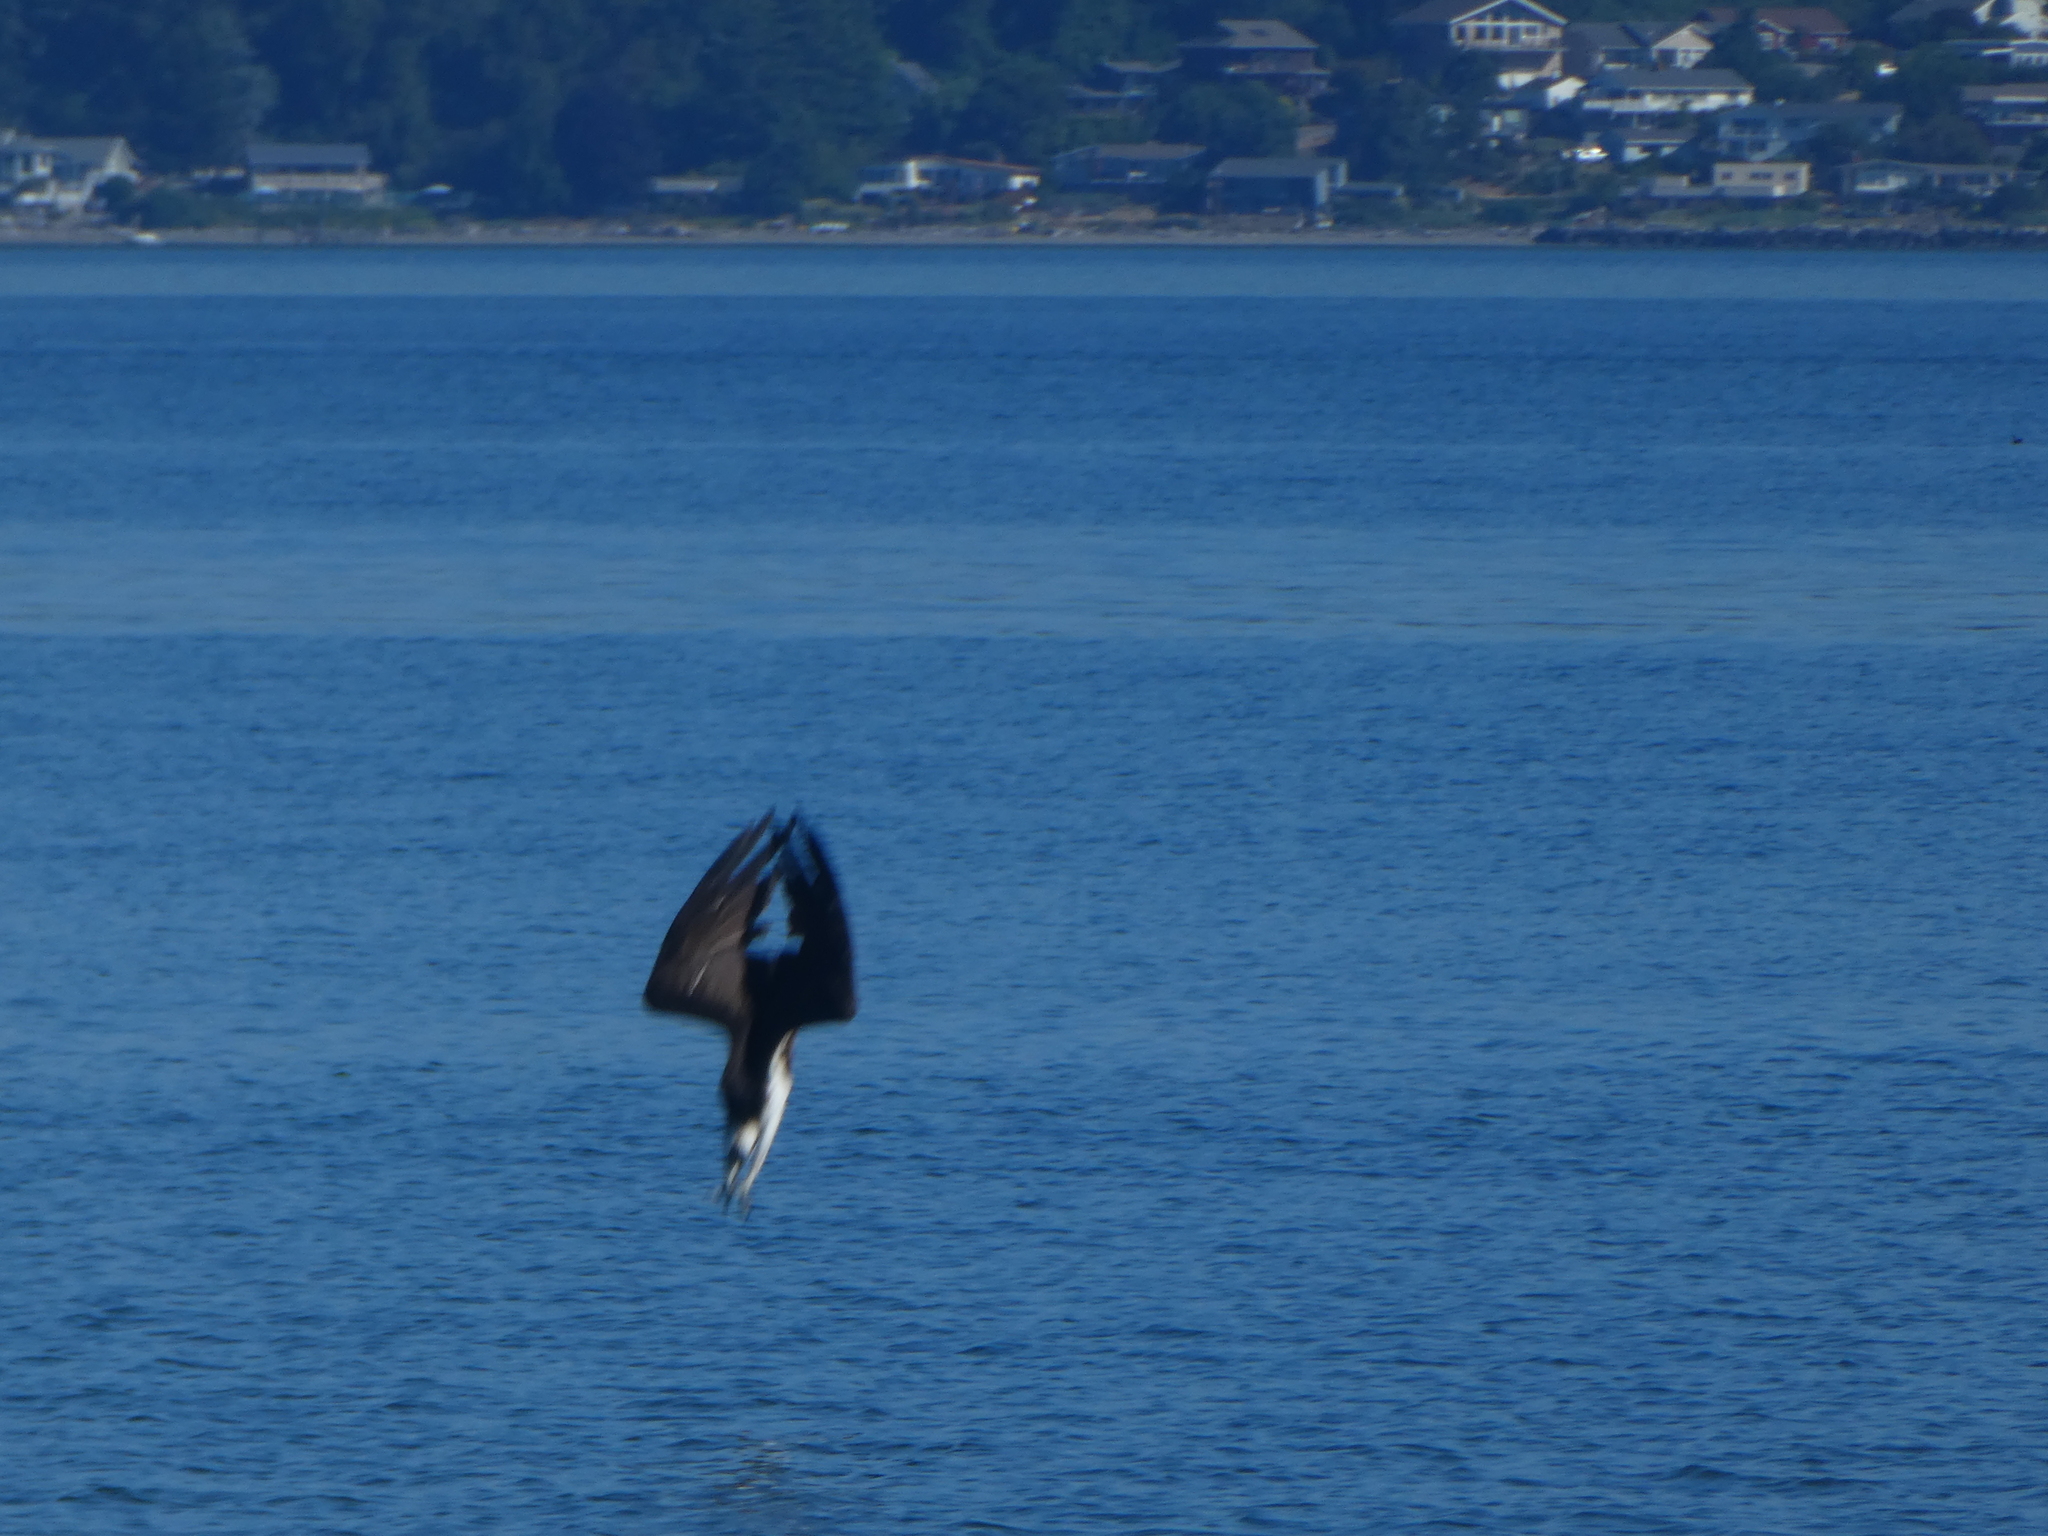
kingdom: Animalia
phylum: Chordata
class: Aves
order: Accipitriformes
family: Pandionidae
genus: Pandion
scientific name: Pandion haliaetus
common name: Osprey
